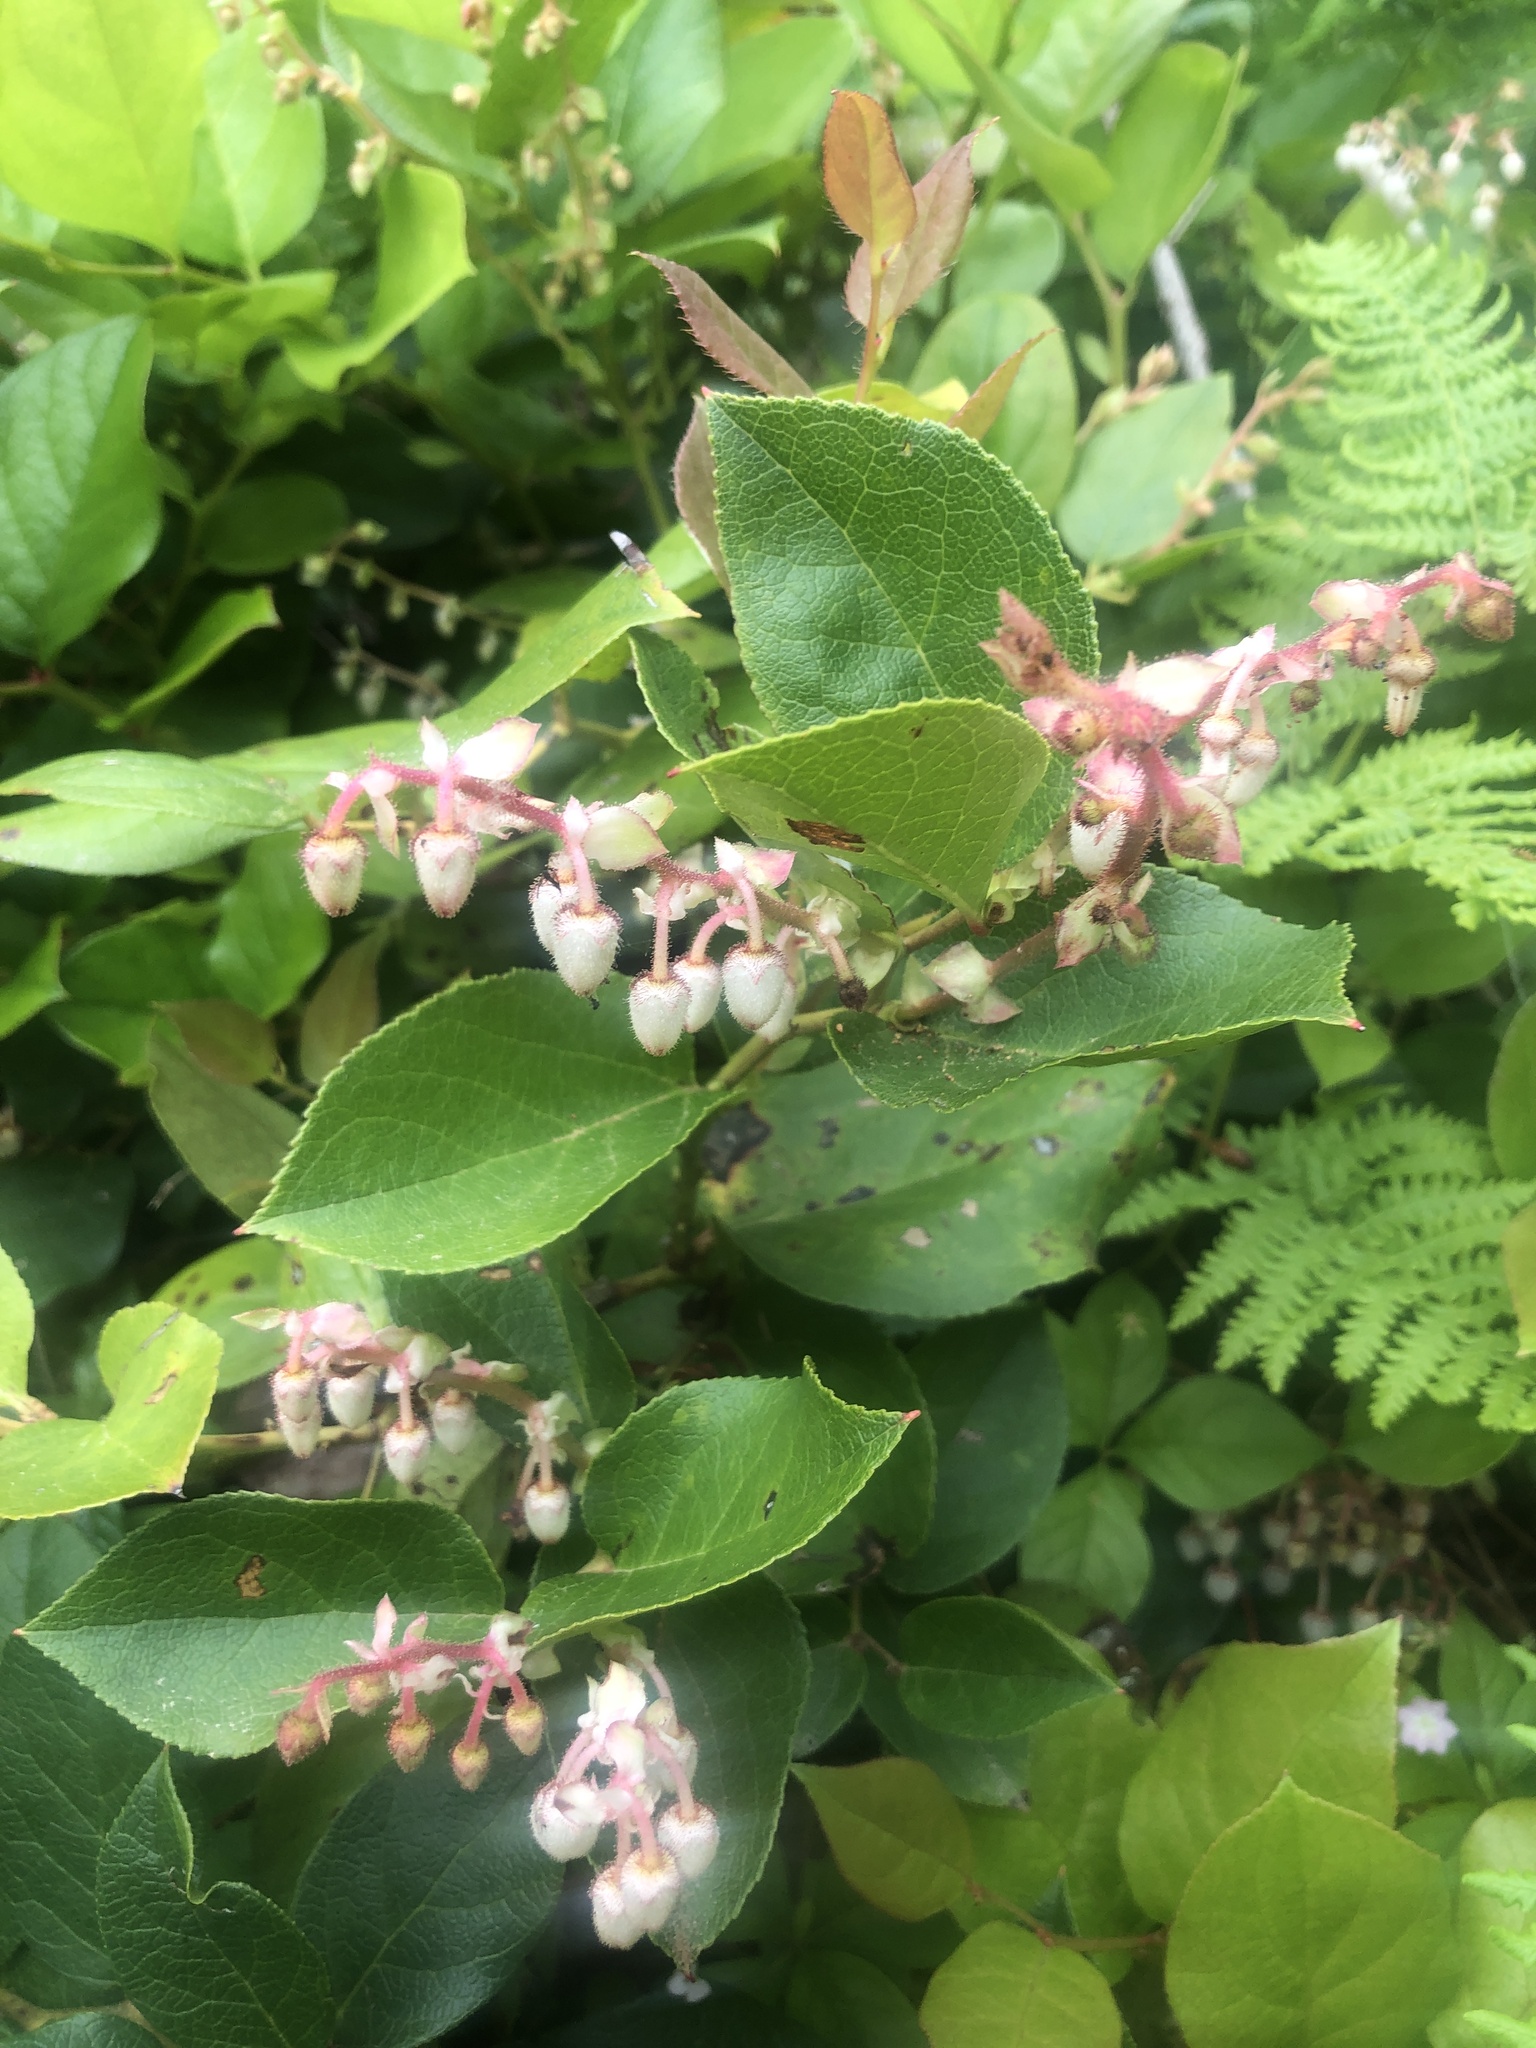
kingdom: Plantae
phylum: Tracheophyta
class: Magnoliopsida
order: Ericales
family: Ericaceae
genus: Gaultheria
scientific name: Gaultheria shallon
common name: Shallon
